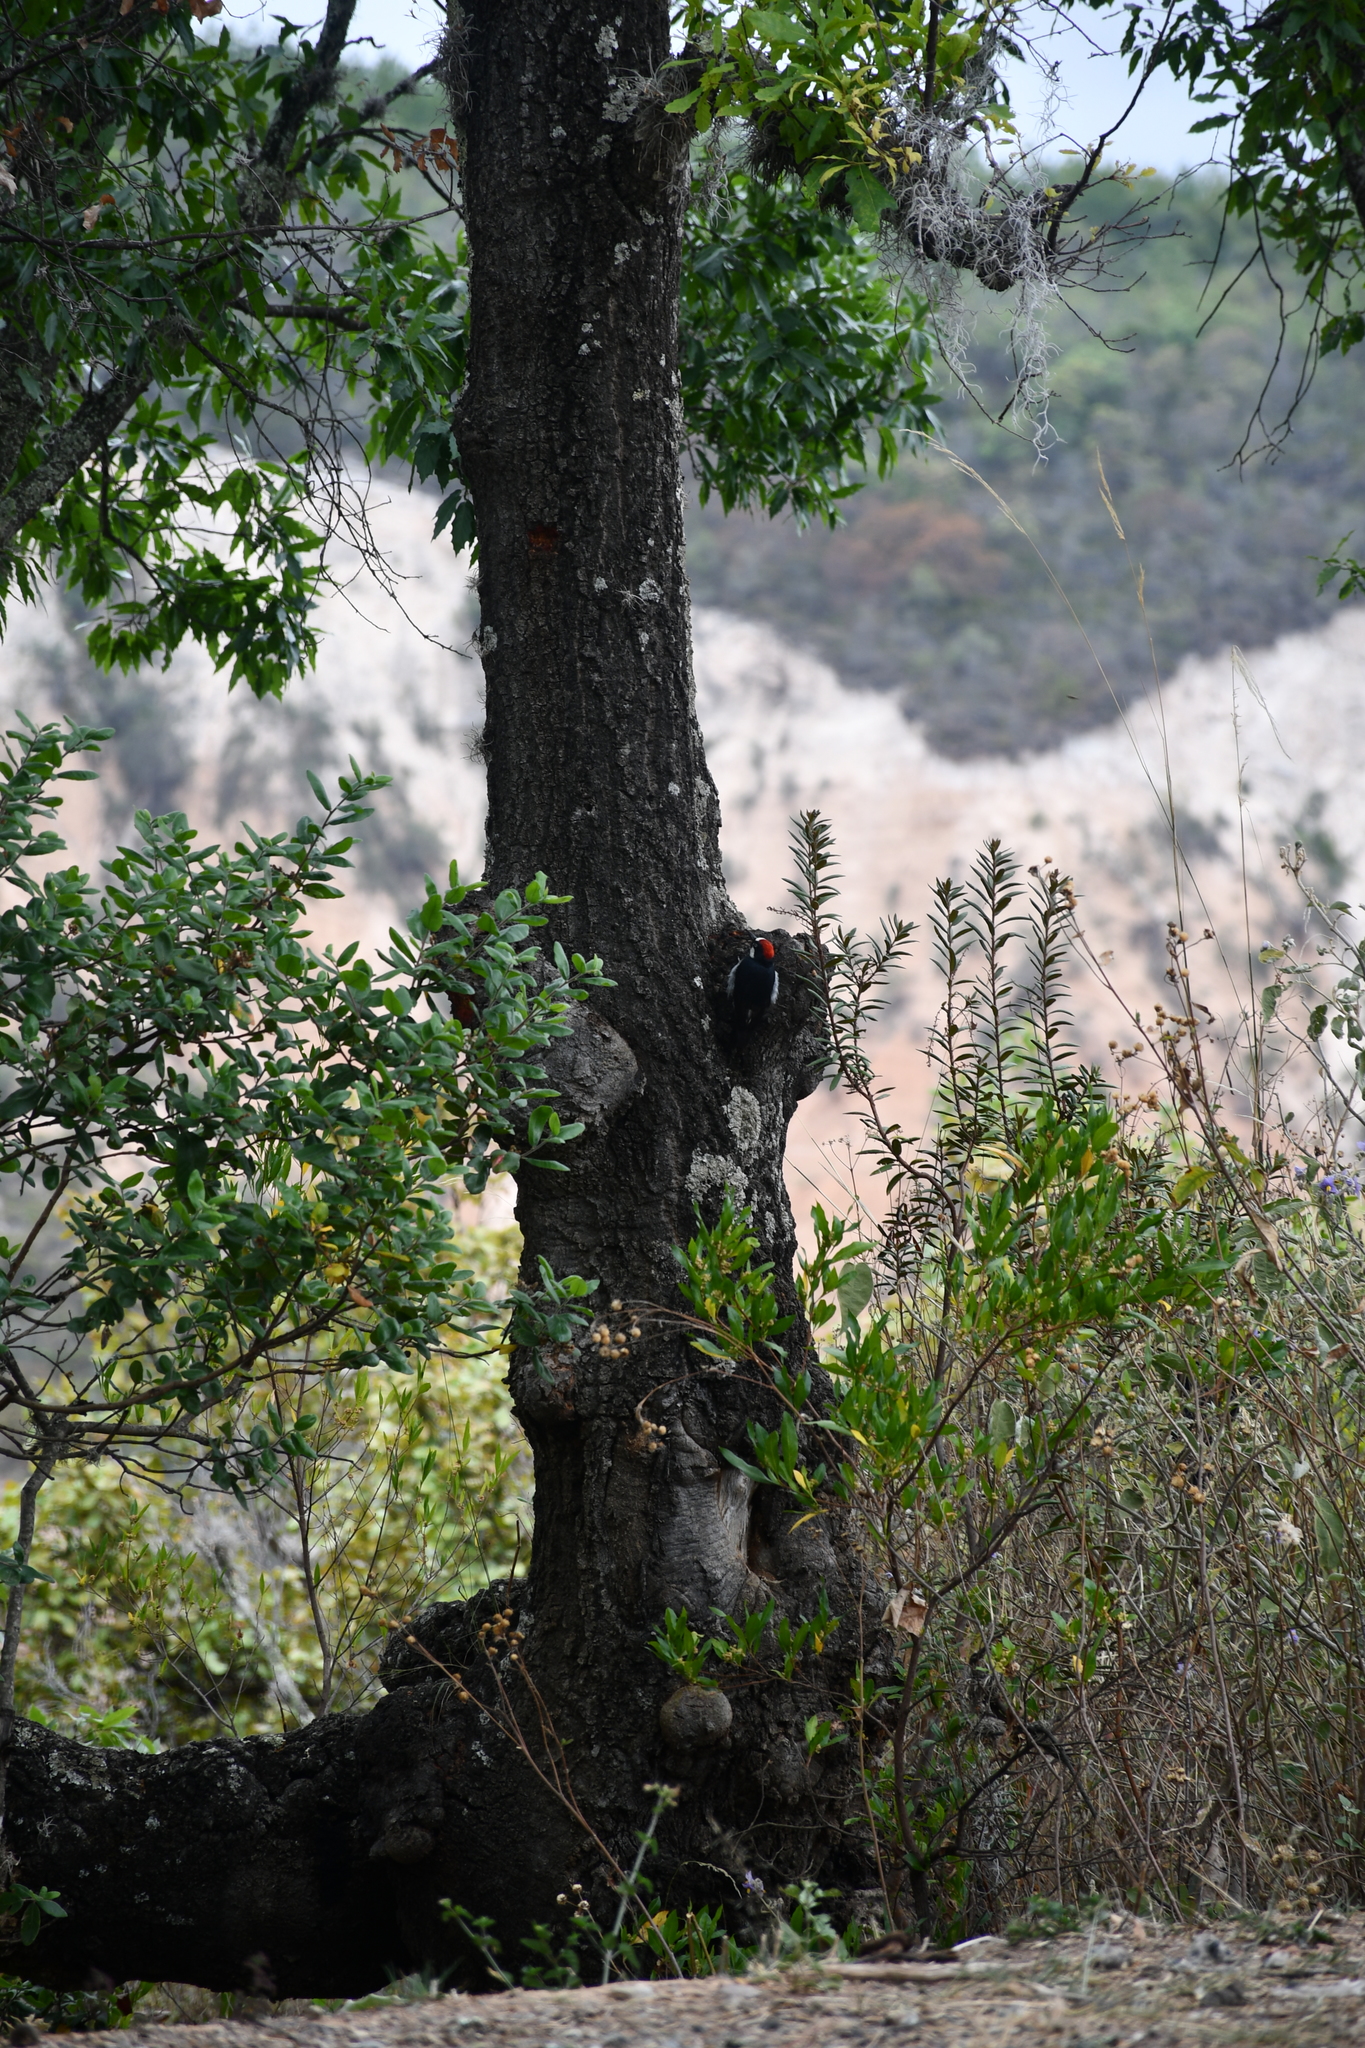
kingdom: Animalia
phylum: Chordata
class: Aves
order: Piciformes
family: Picidae
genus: Melanerpes
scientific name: Melanerpes formicivorus
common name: Acorn woodpecker
